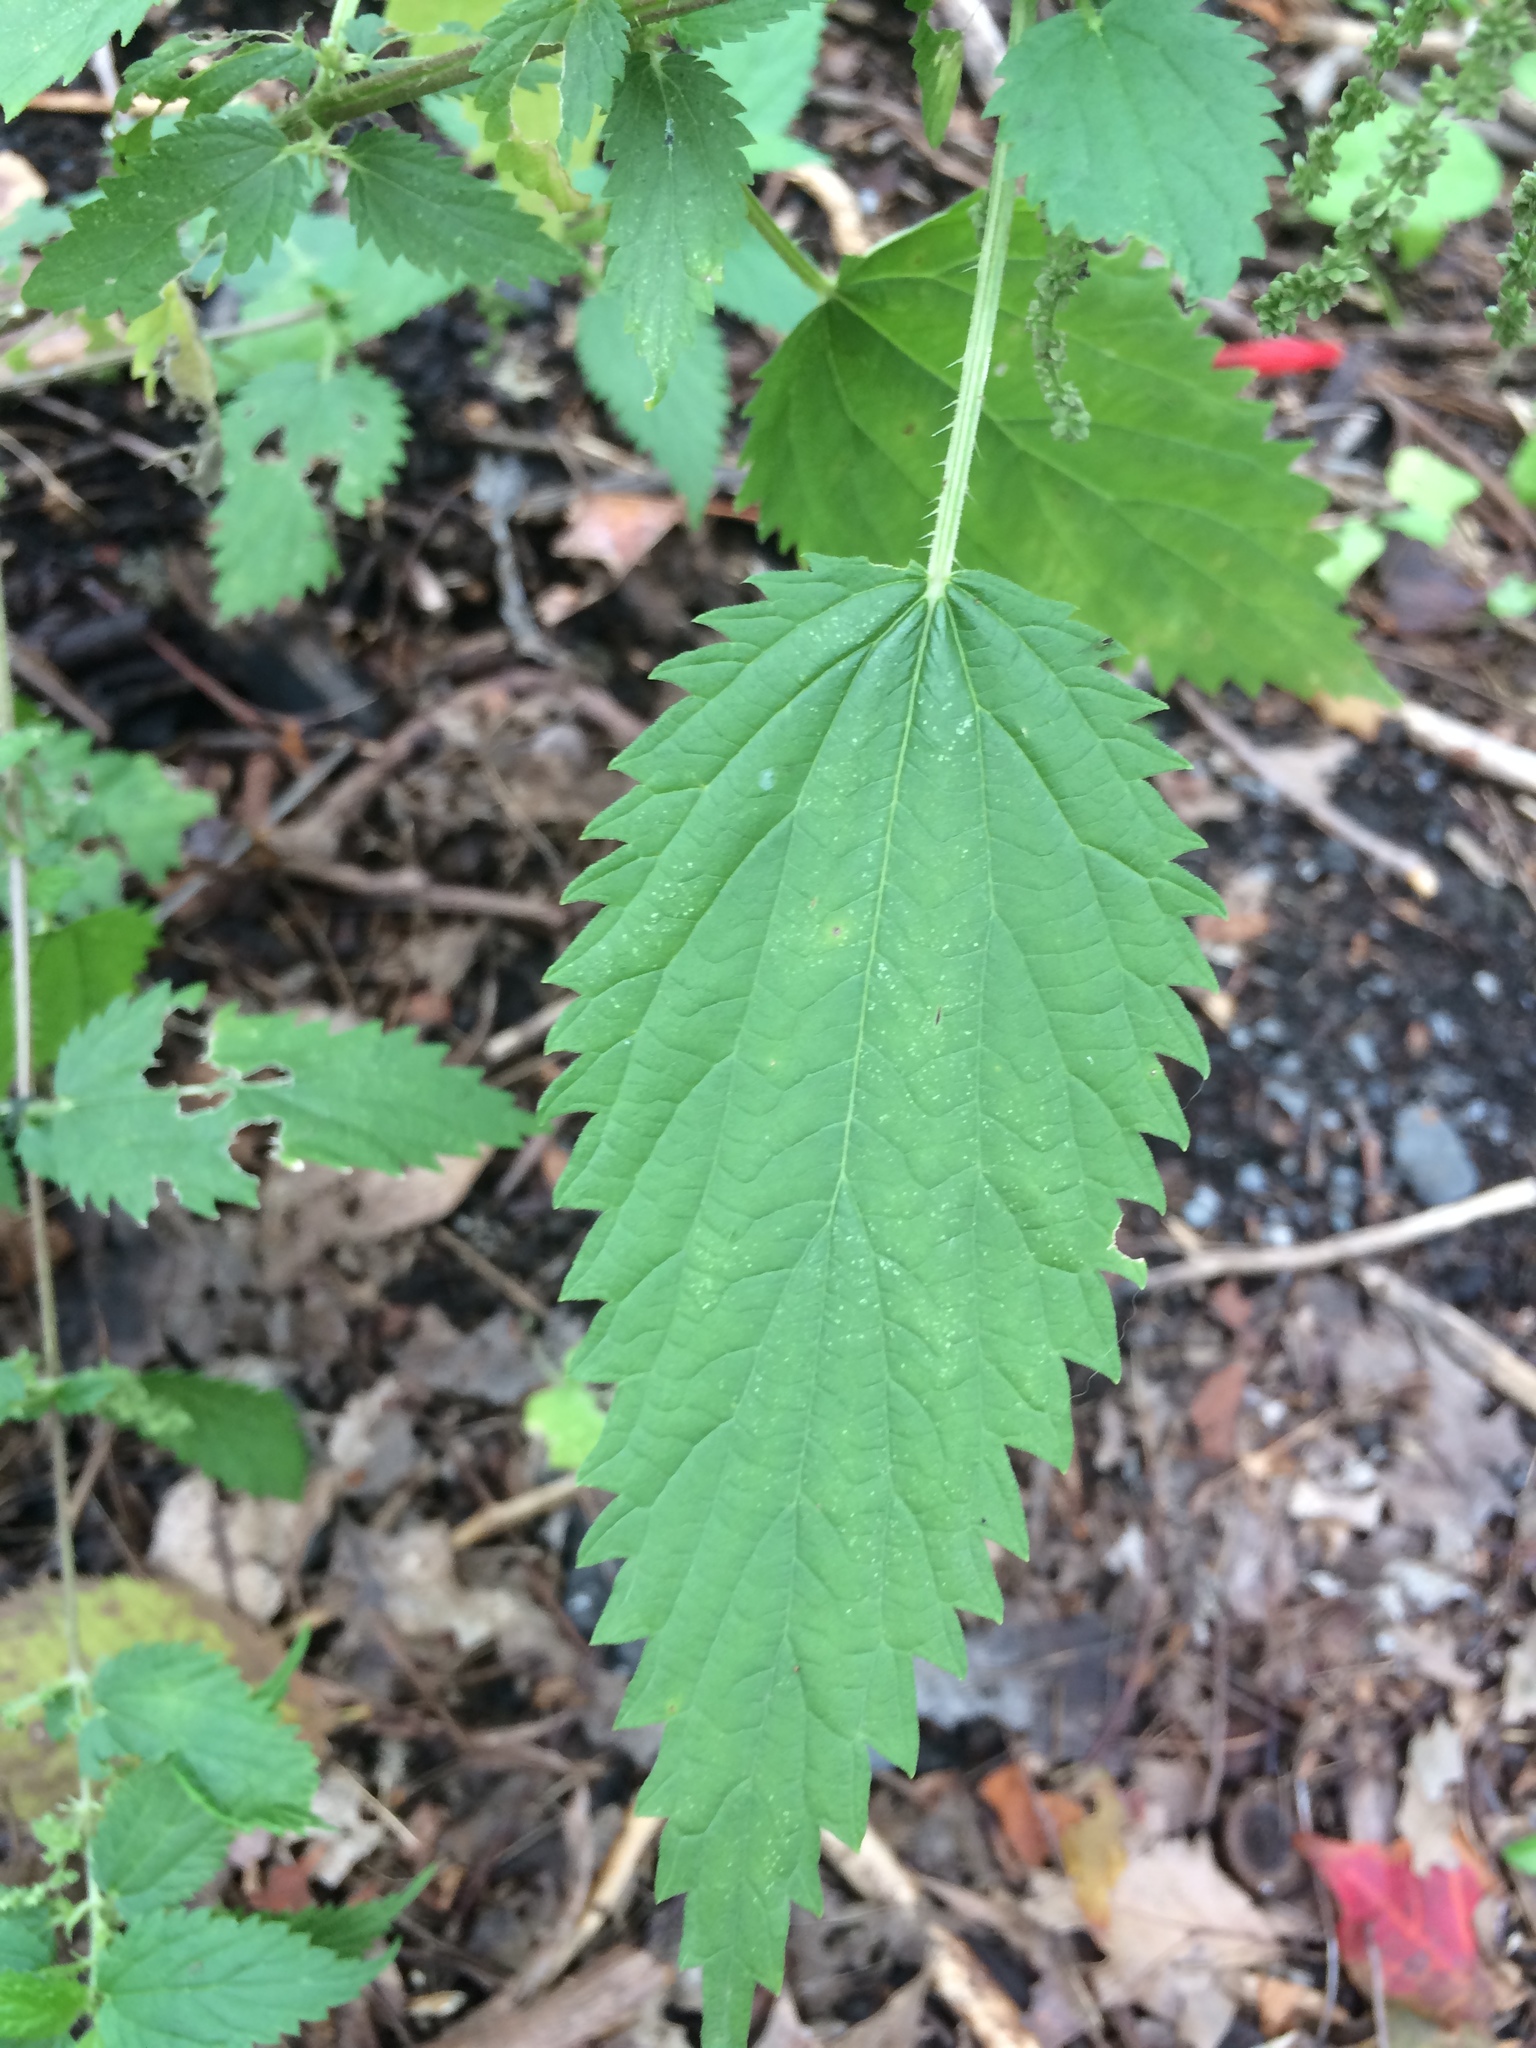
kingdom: Plantae
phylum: Tracheophyta
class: Magnoliopsida
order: Rosales
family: Urticaceae
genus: Urtica
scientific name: Urtica gracilis
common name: Slender stinging nettle
